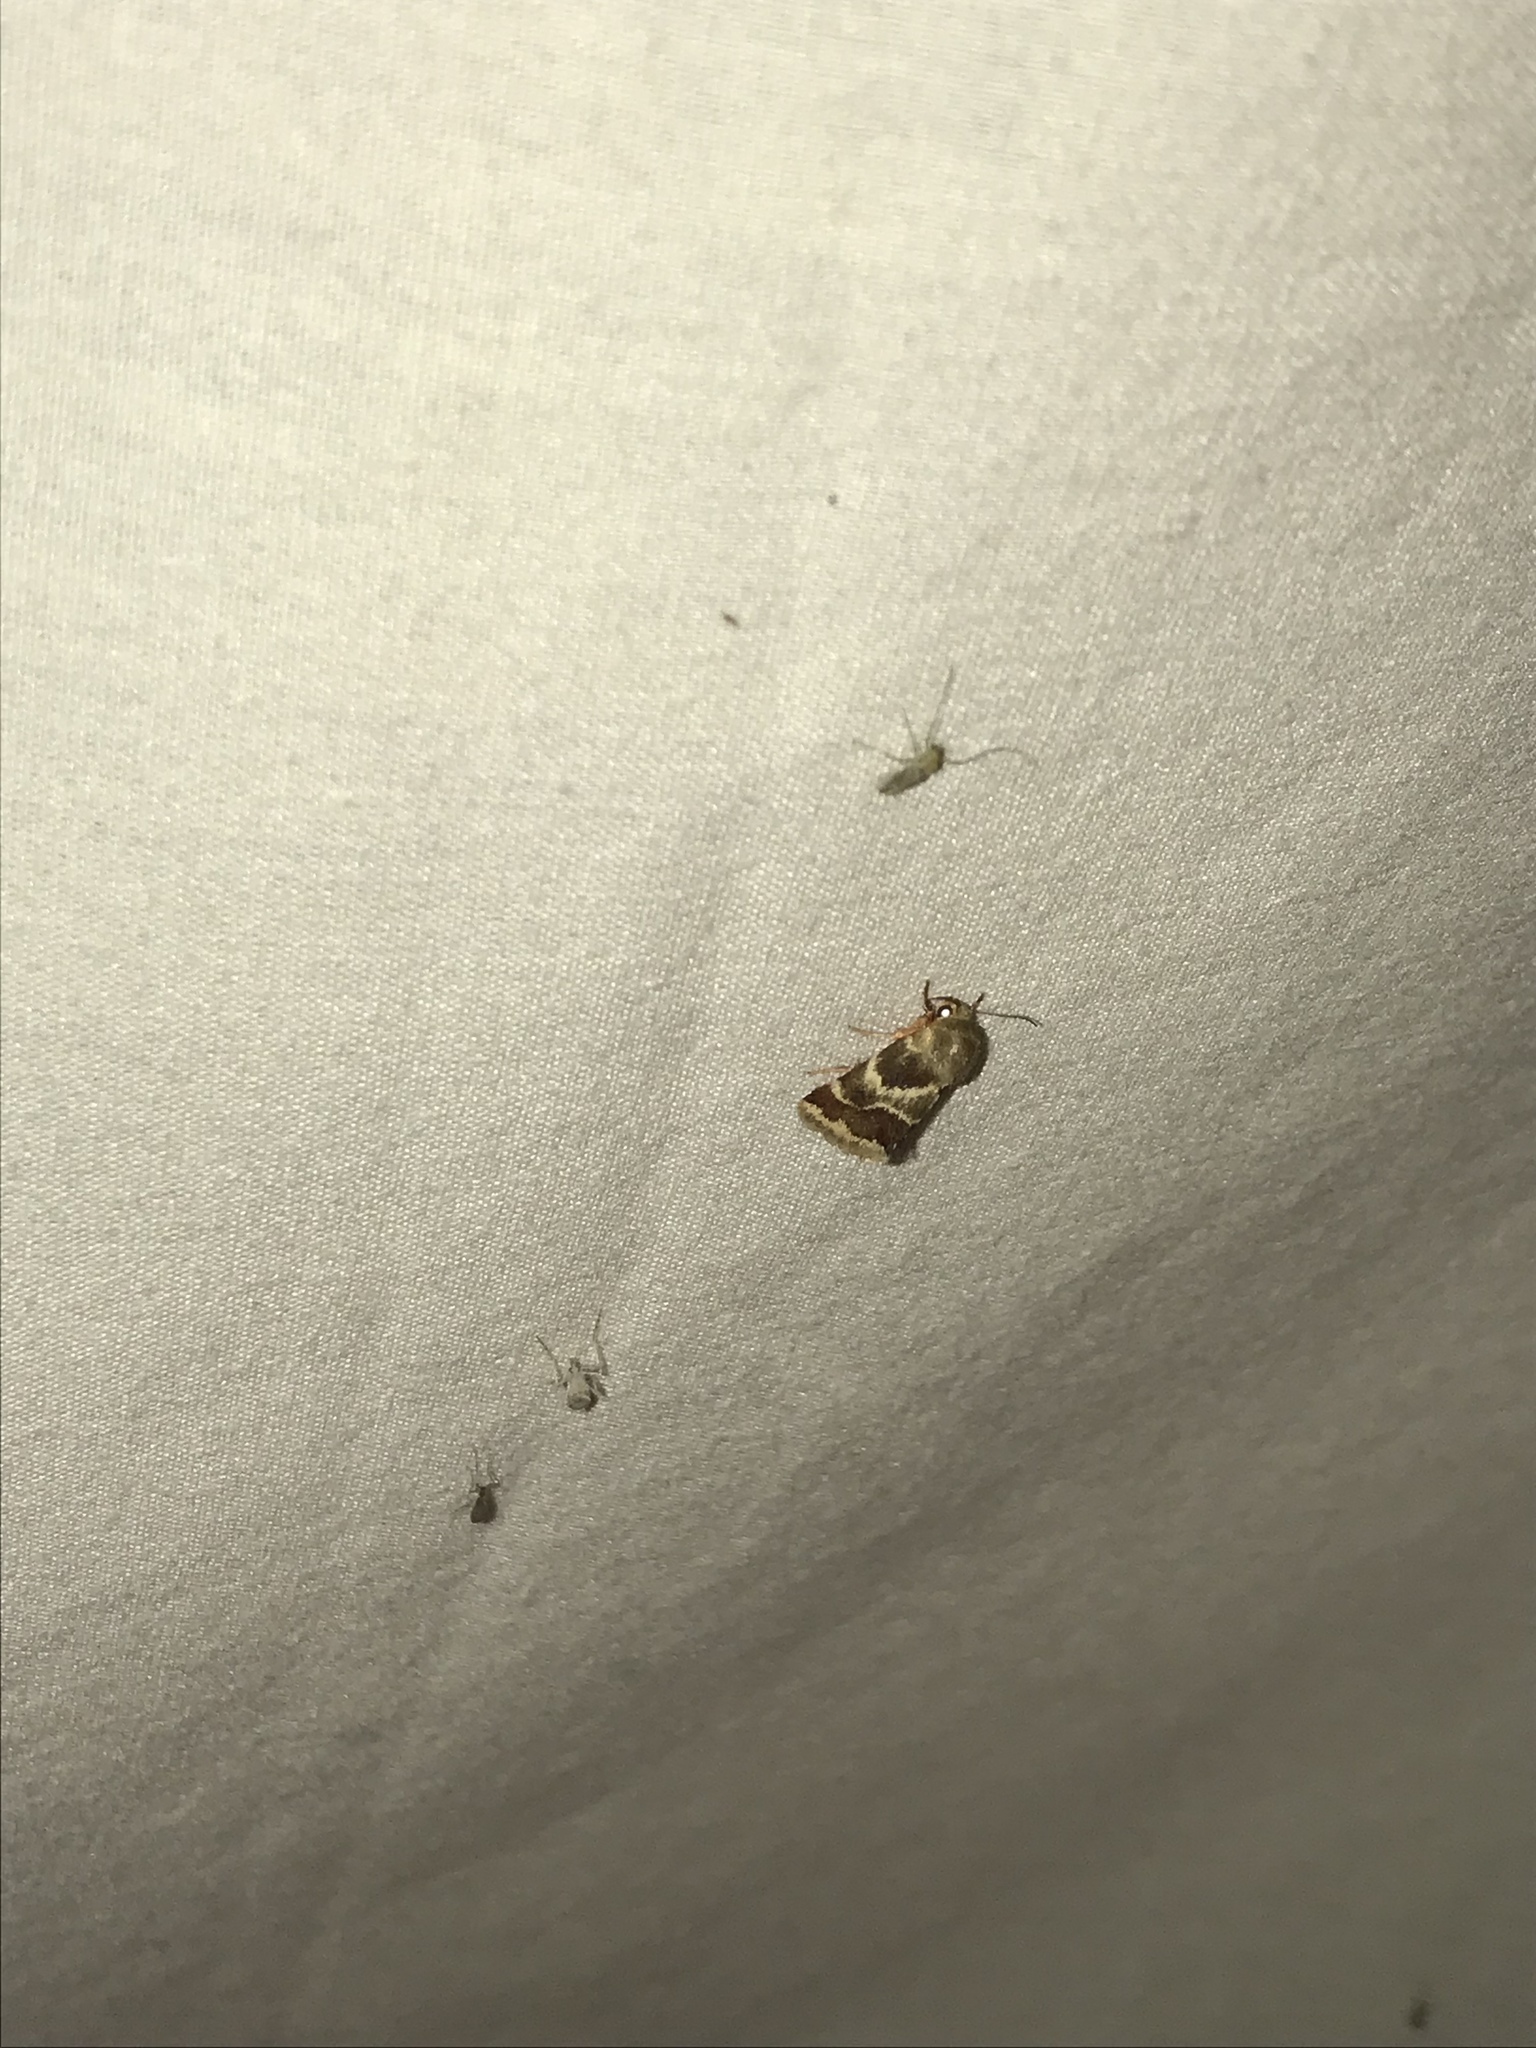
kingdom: Animalia
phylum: Arthropoda
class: Insecta
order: Lepidoptera
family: Noctuidae
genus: Schinia
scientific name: Schinia lynx
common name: Lynx flower moth
